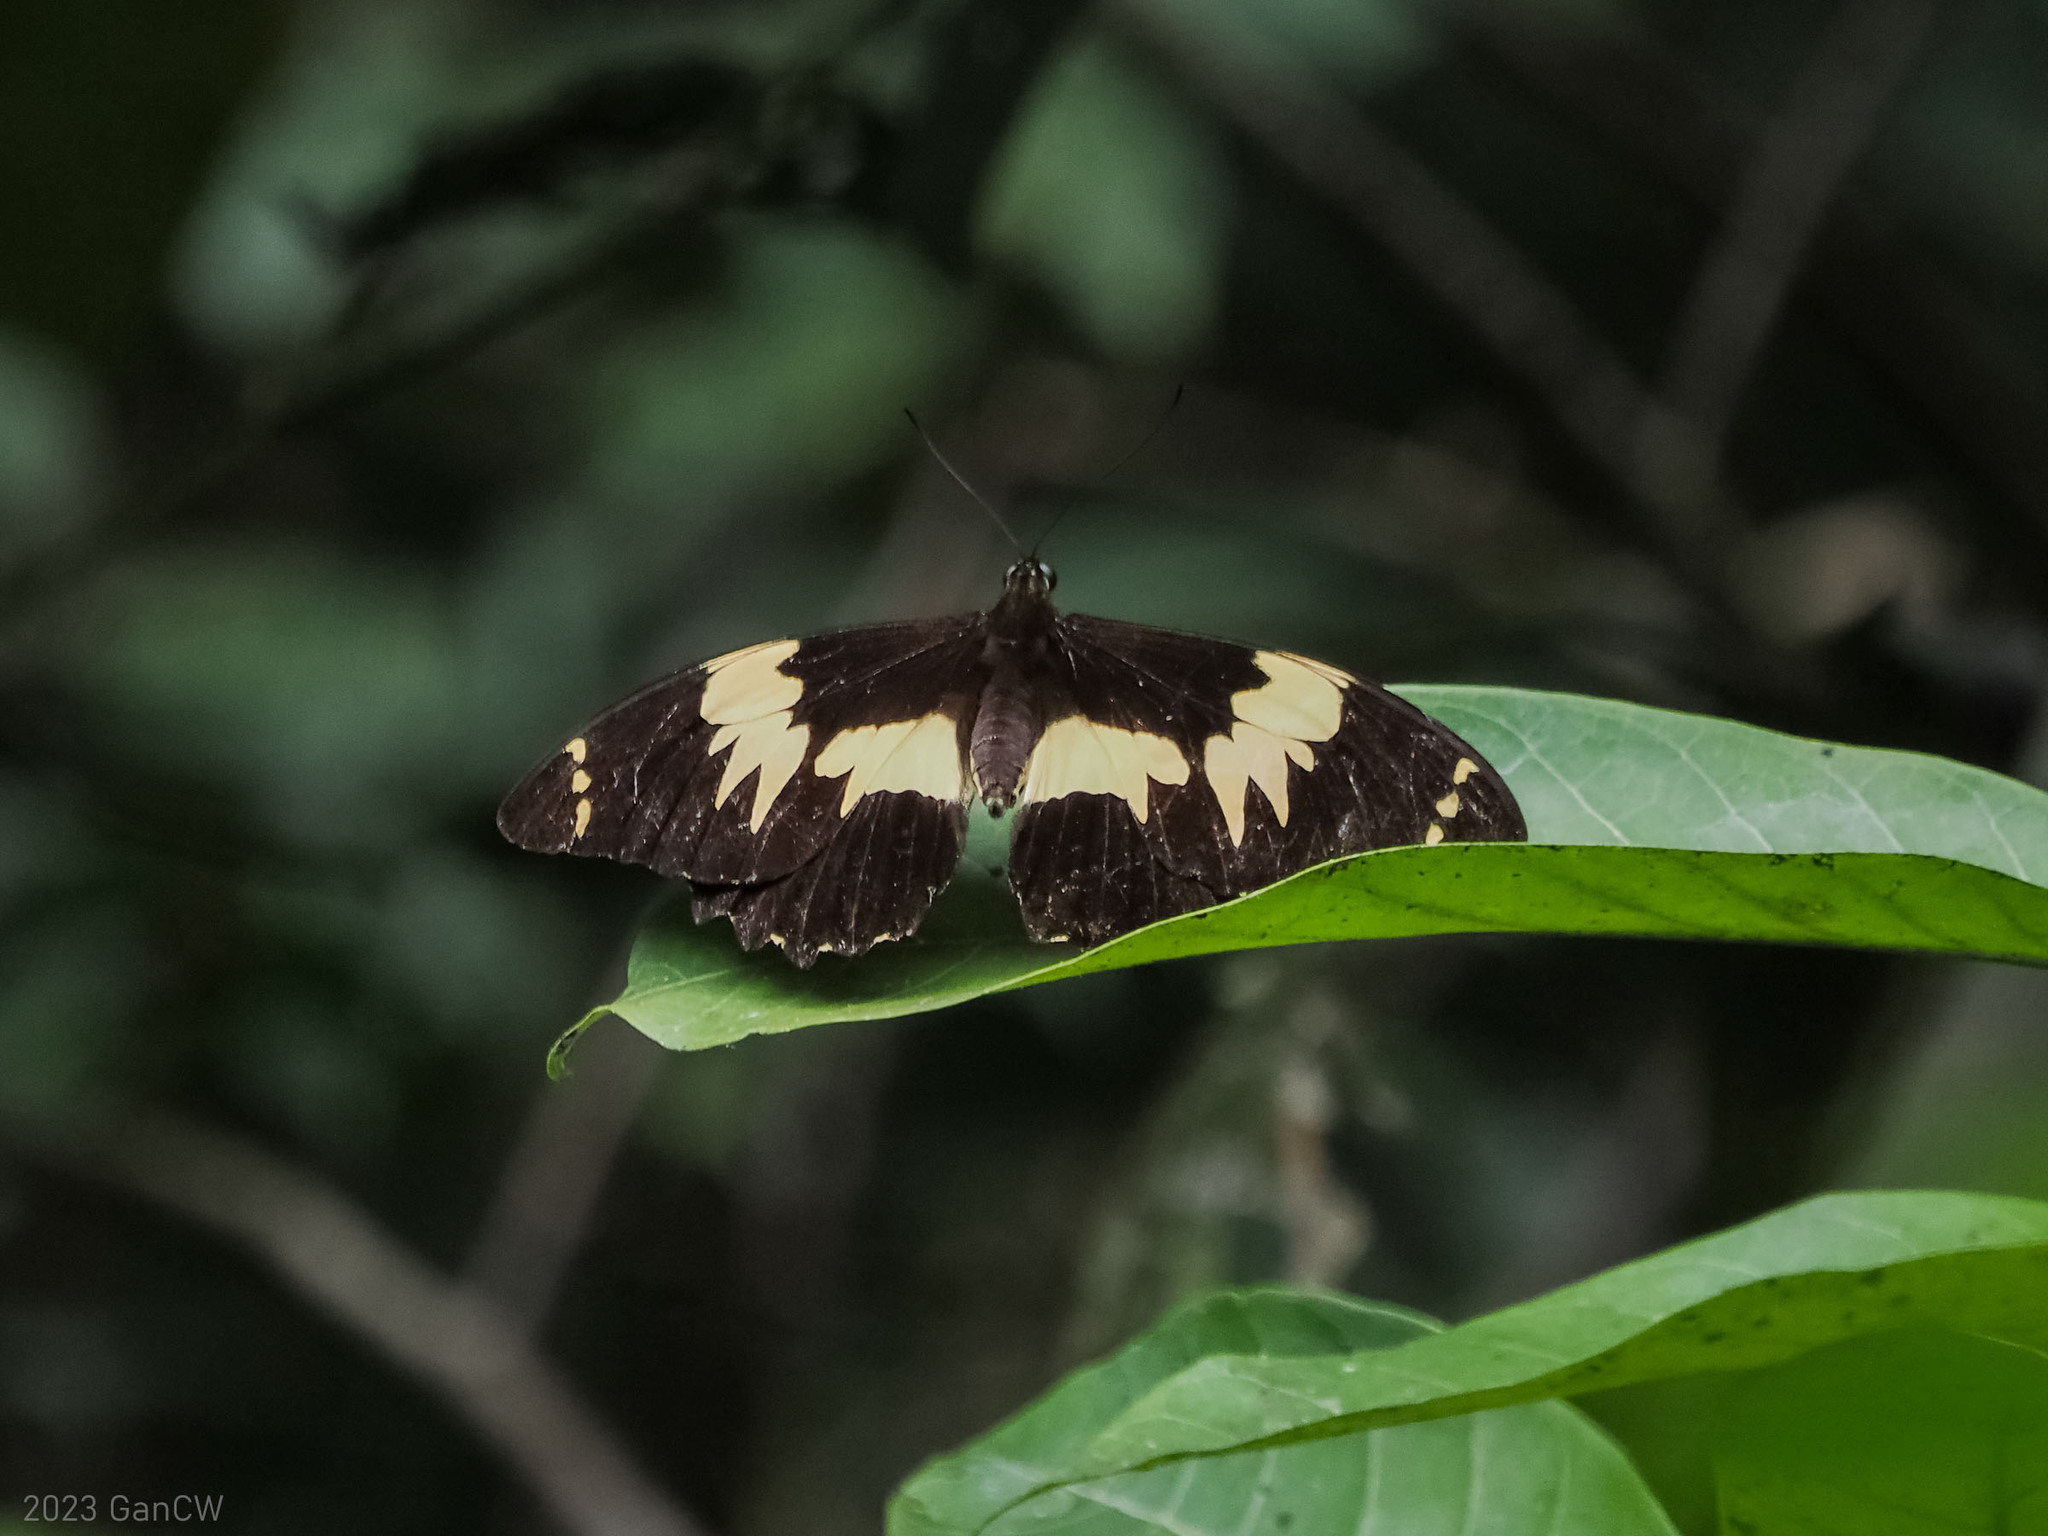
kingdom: Animalia
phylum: Arthropoda
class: Insecta
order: Lepidoptera
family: Papilionidae
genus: Papilio
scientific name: Papilio euchenor
